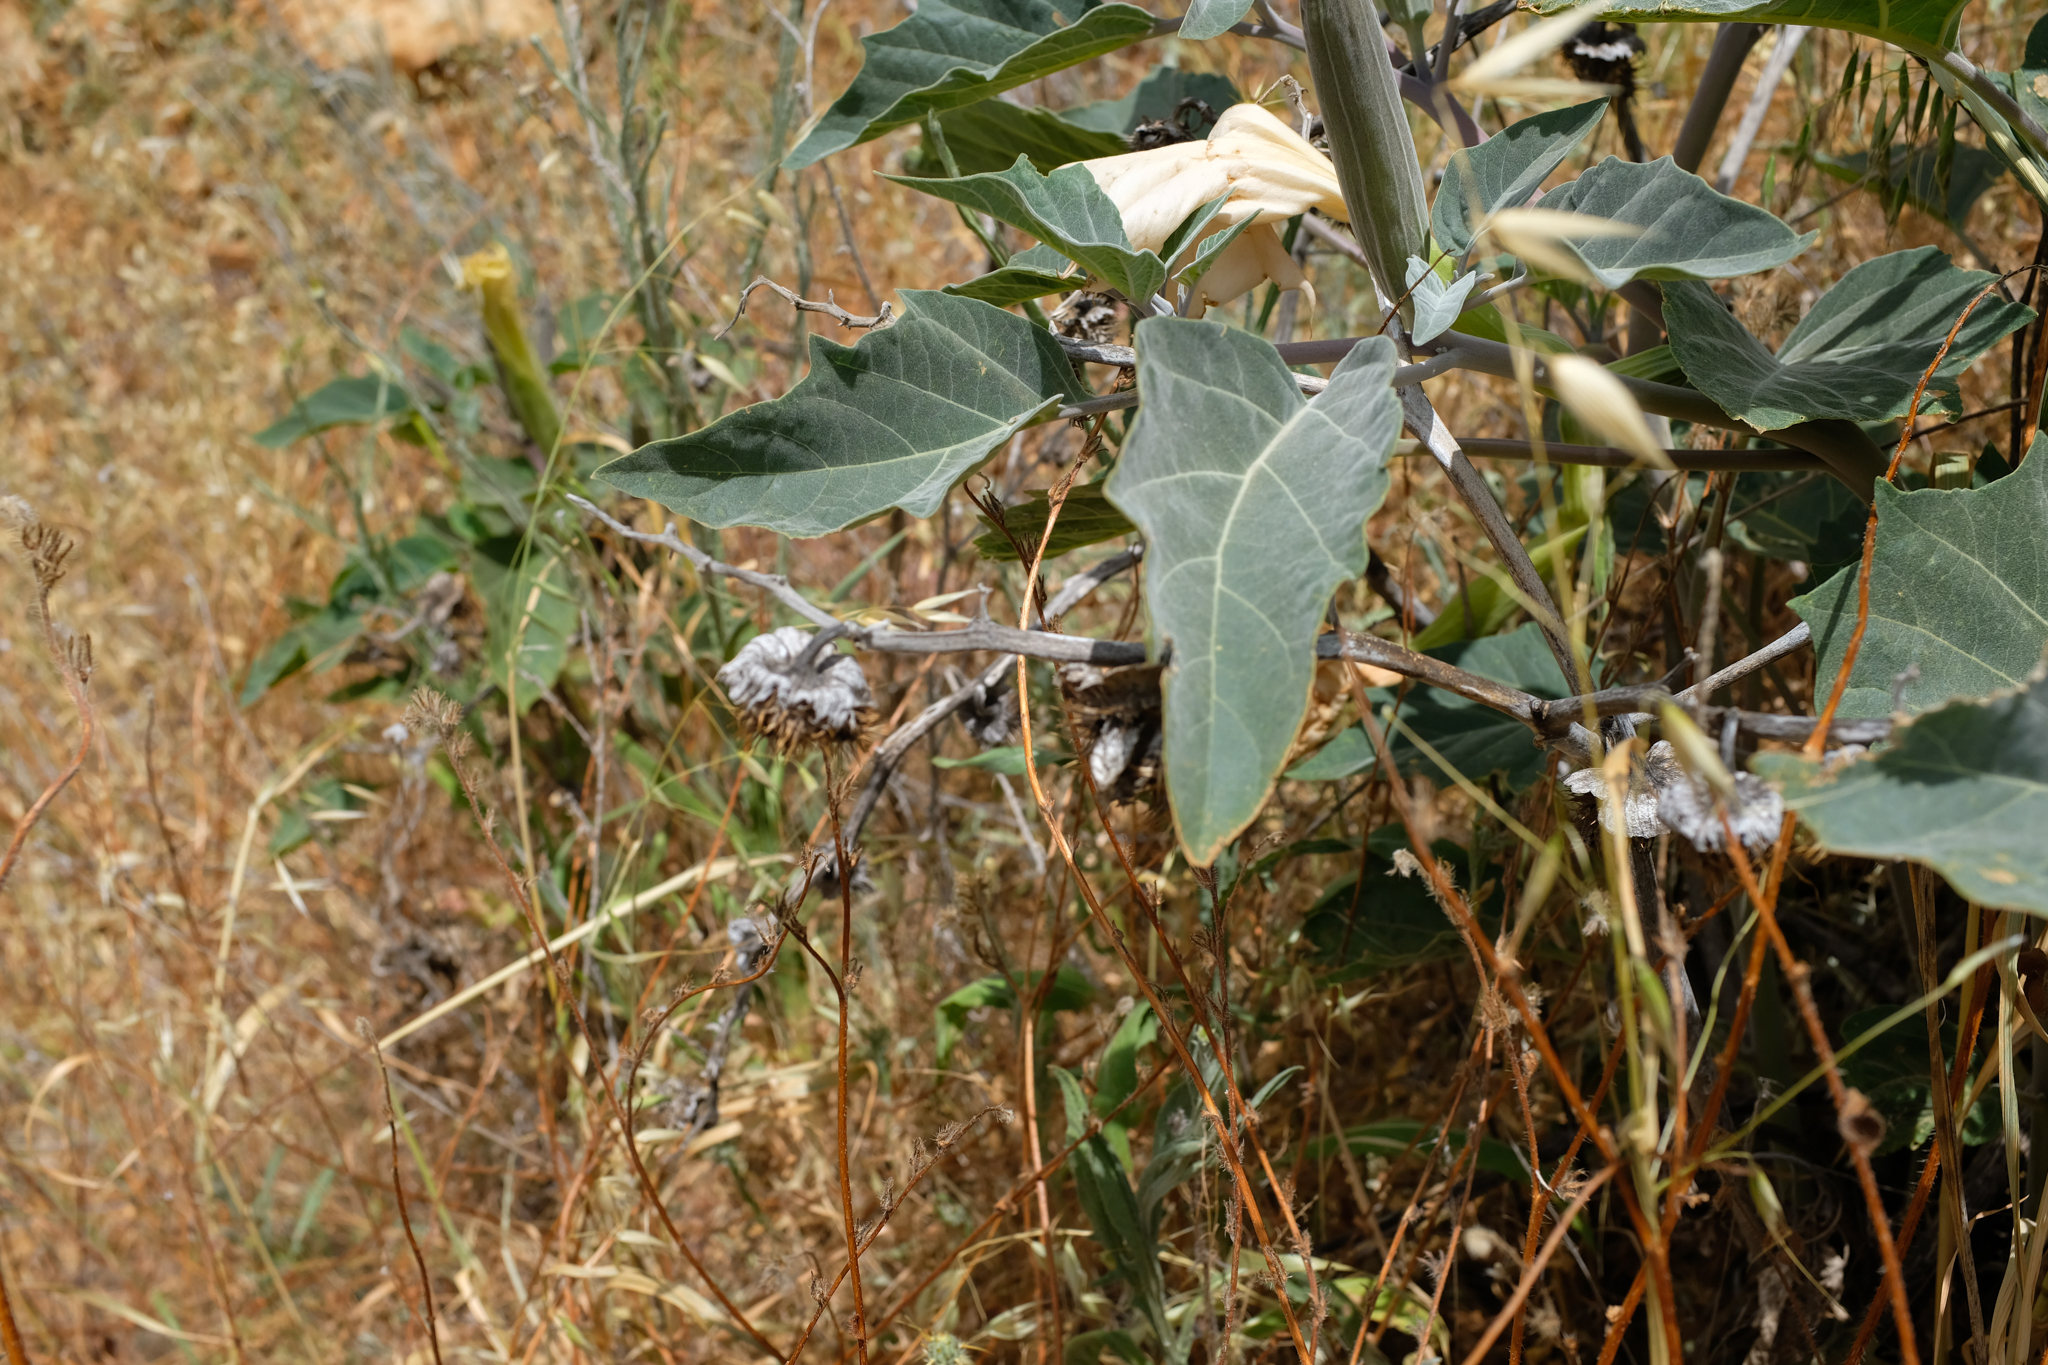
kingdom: Plantae
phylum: Tracheophyta
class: Magnoliopsida
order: Solanales
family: Solanaceae
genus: Datura
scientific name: Datura wrightii
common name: Sacred thorn-apple
